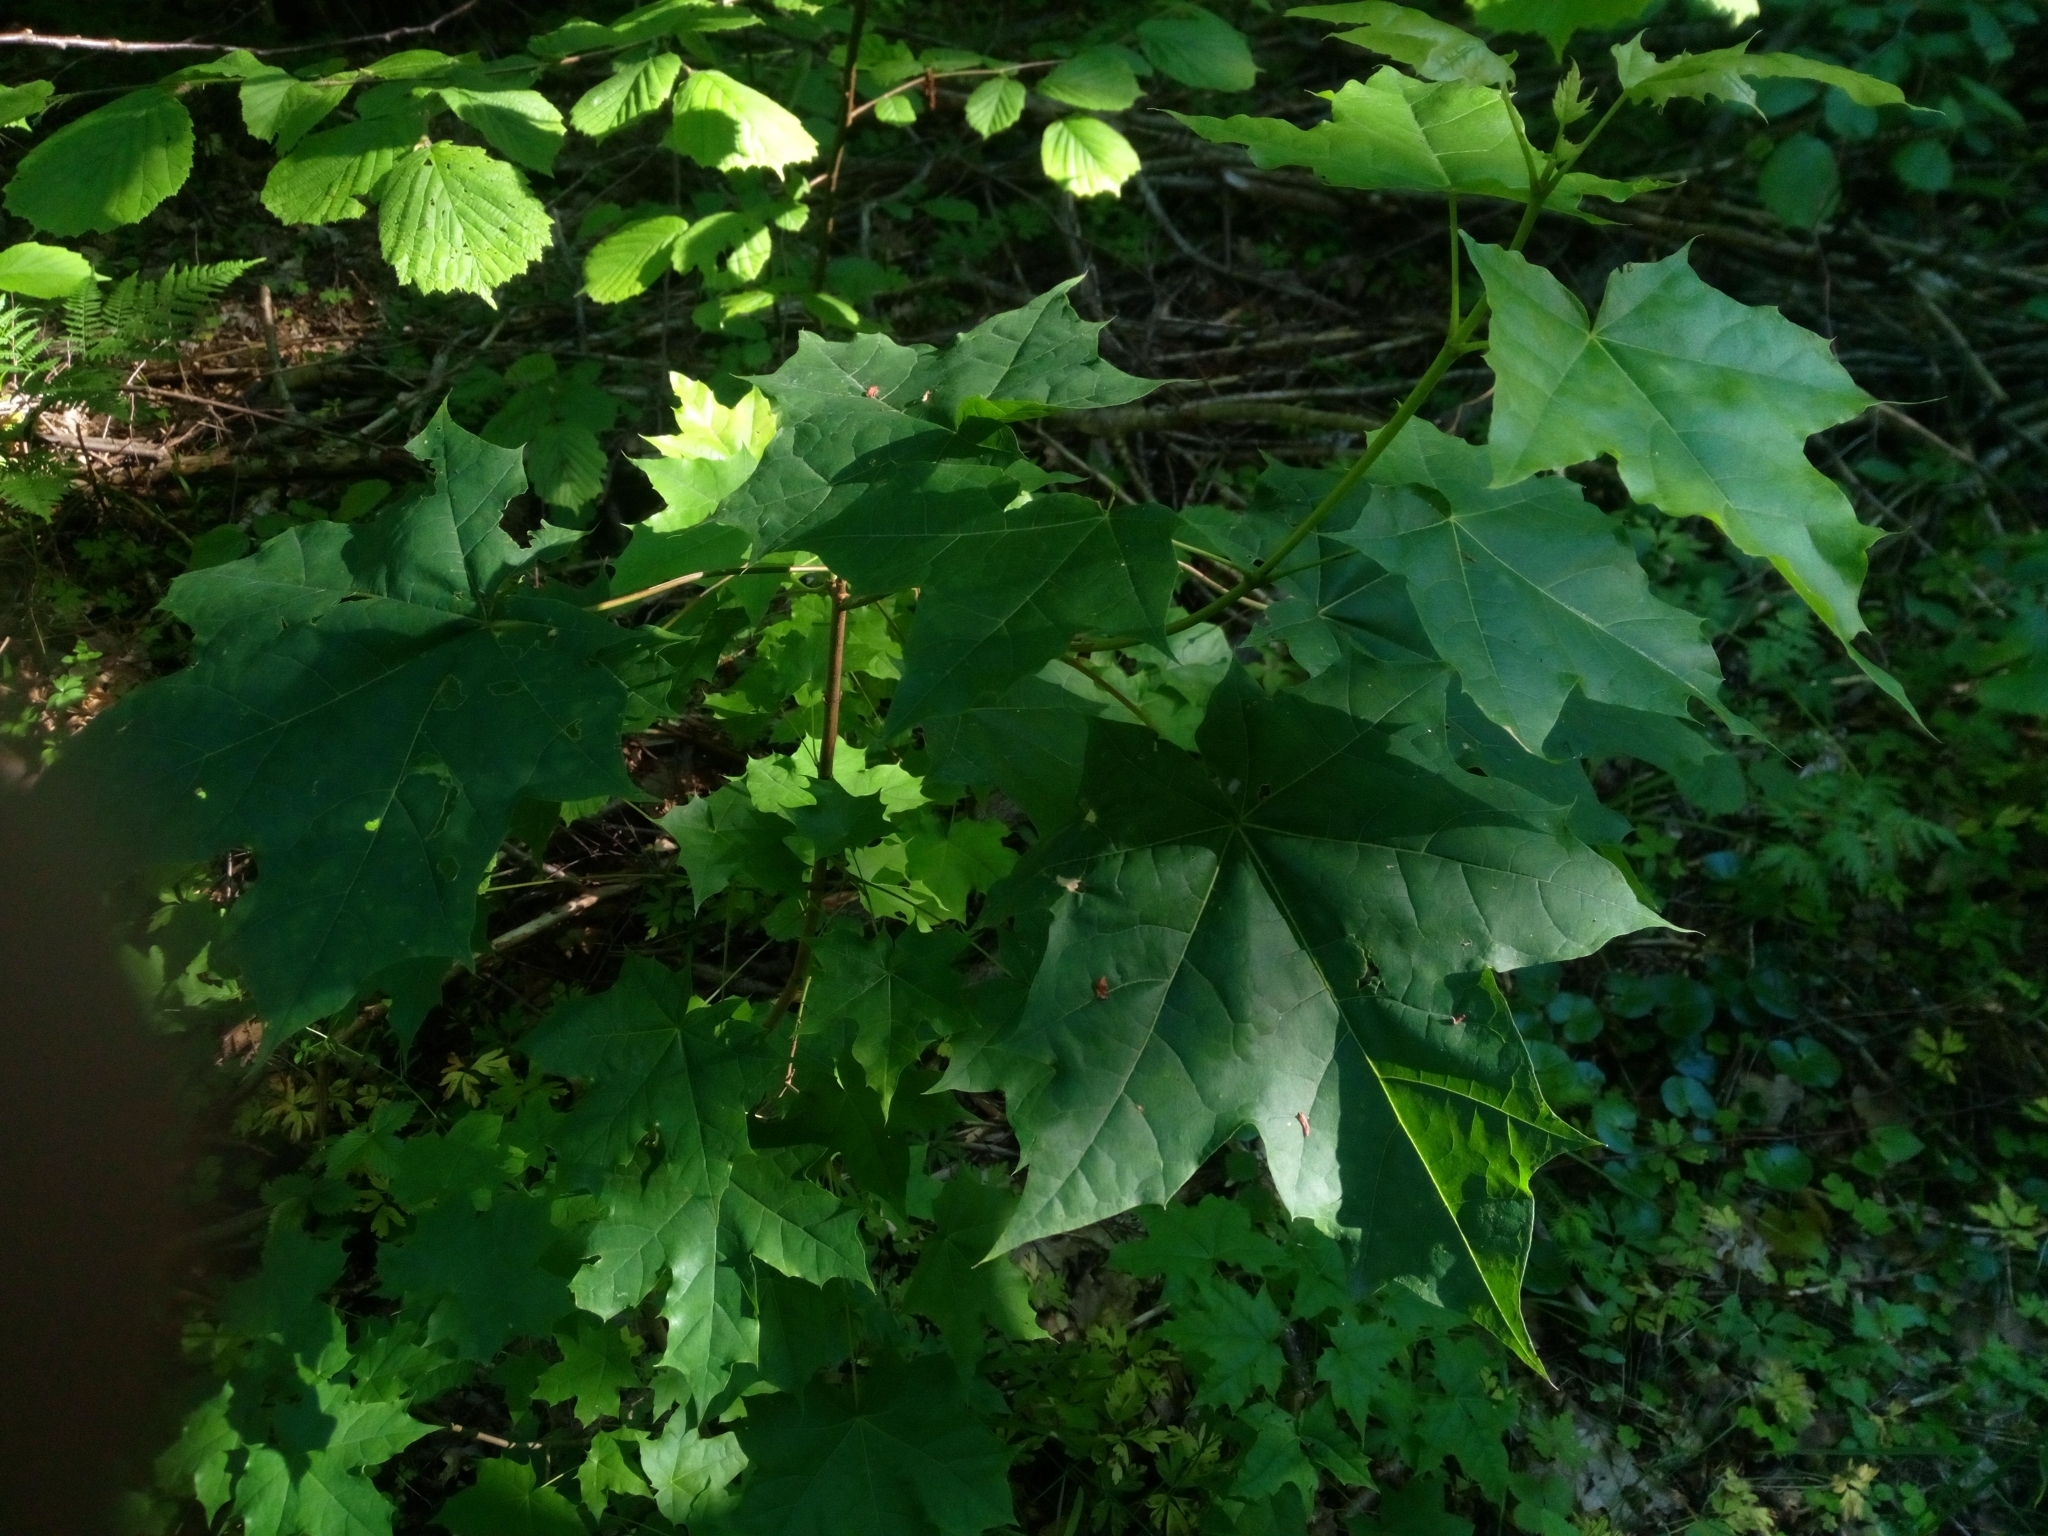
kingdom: Plantae
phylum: Tracheophyta
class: Magnoliopsida
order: Sapindales
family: Sapindaceae
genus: Acer
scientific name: Acer platanoides
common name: Norway maple
